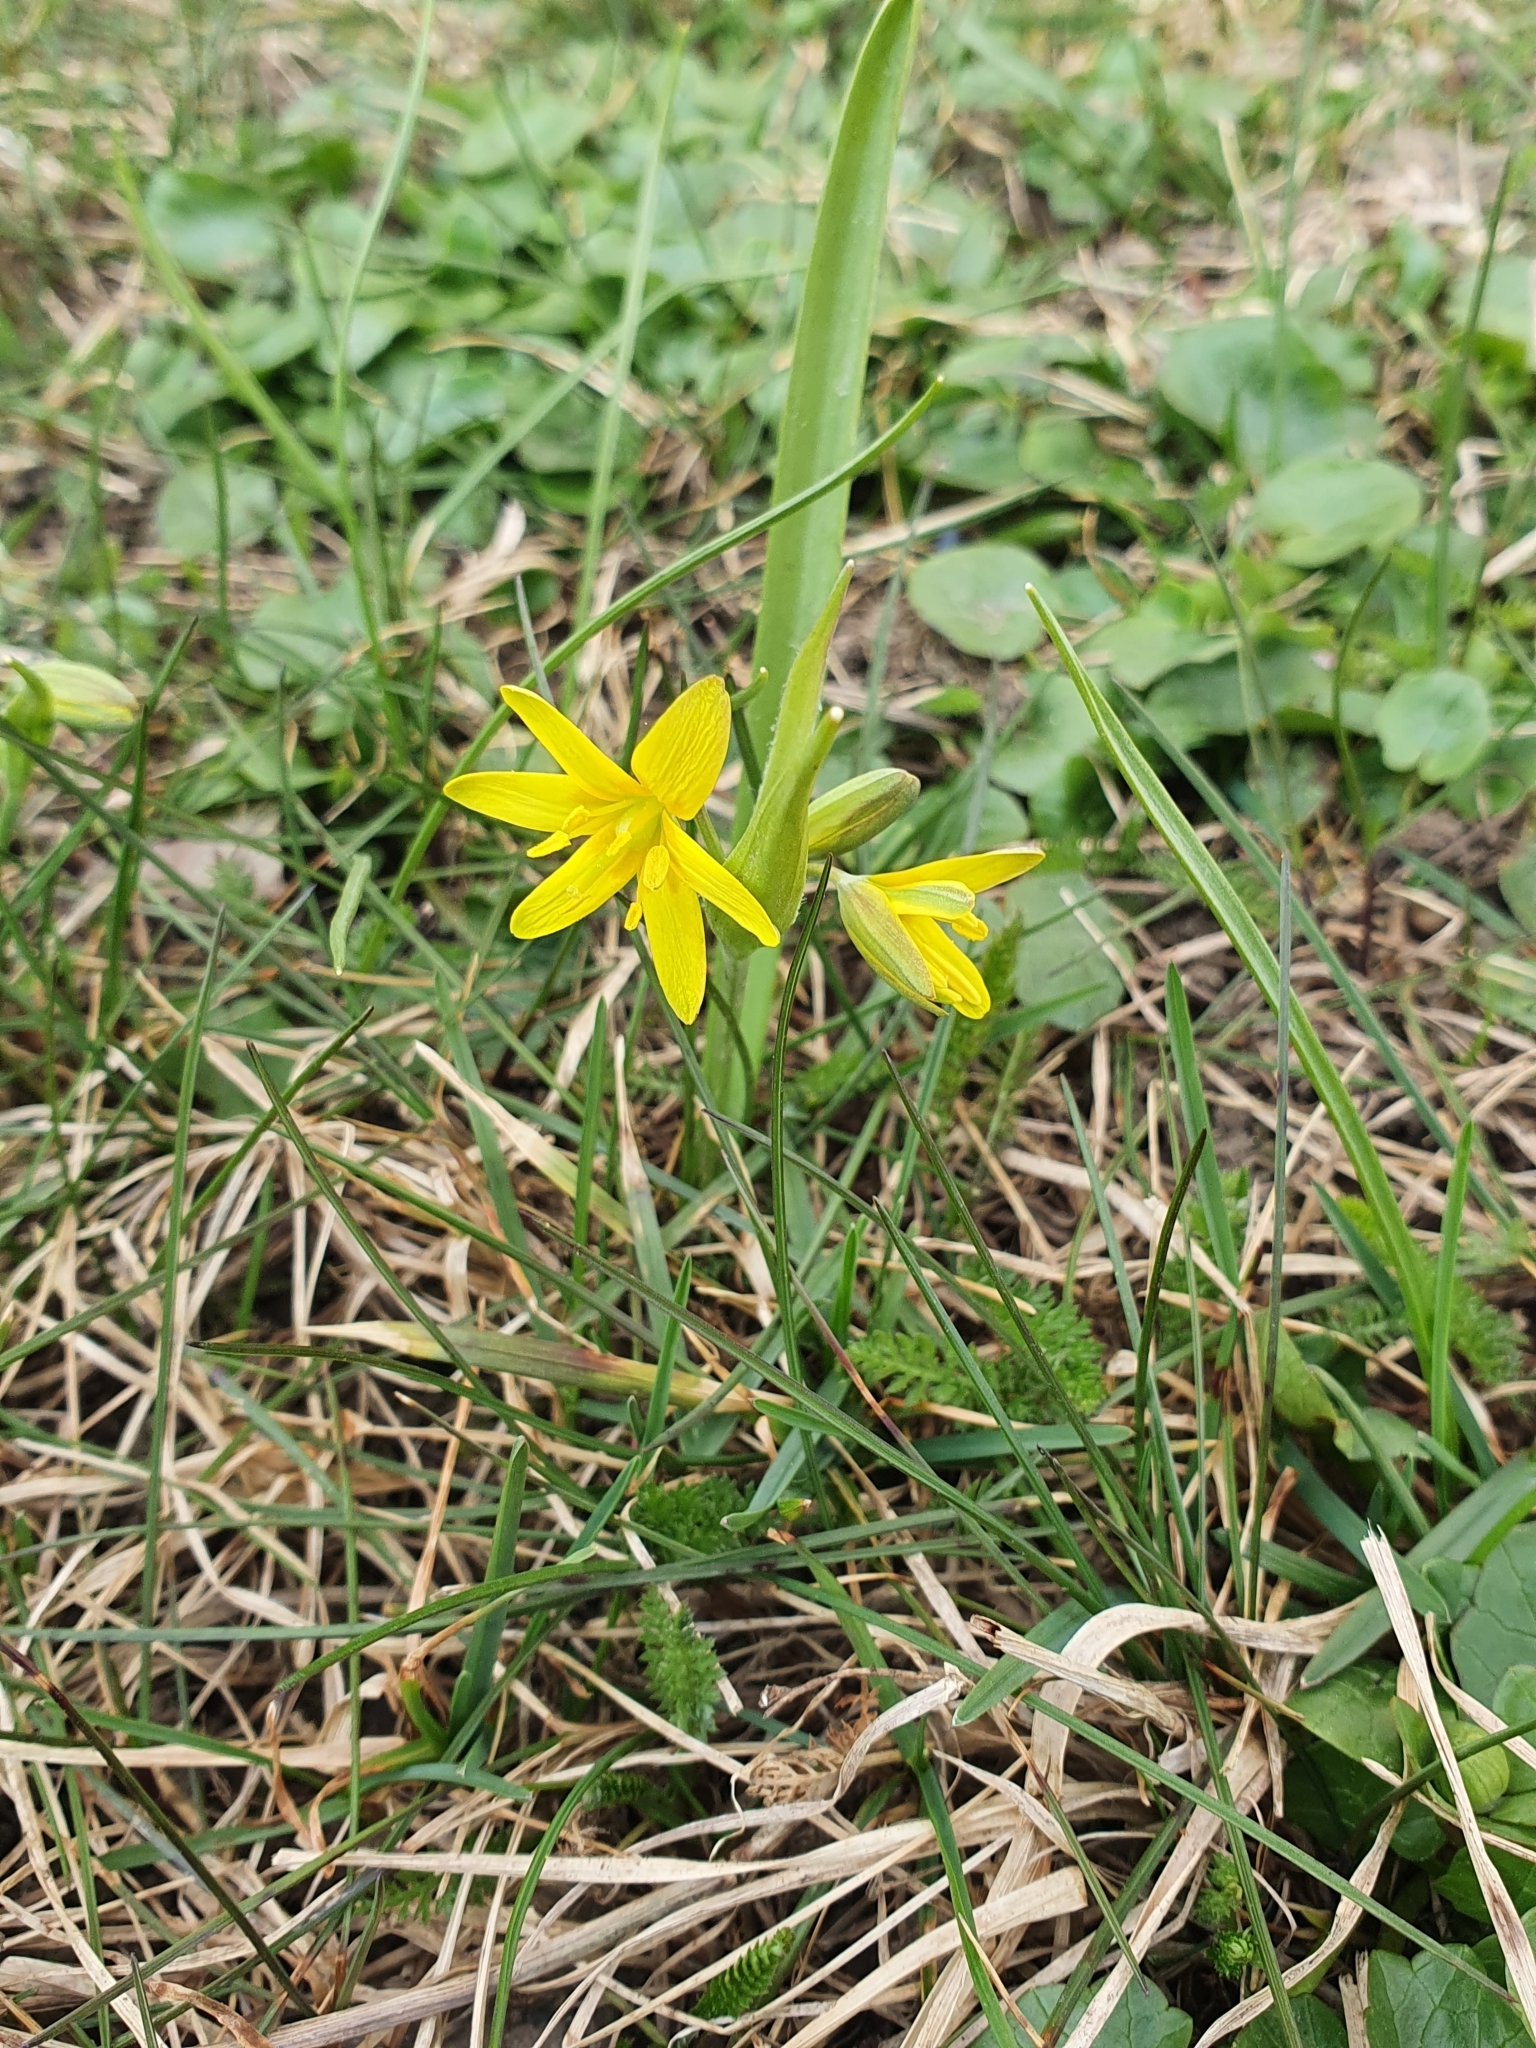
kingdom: Plantae
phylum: Tracheophyta
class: Liliopsida
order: Liliales
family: Liliaceae
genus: Gagea
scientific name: Gagea lutea
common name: Yellow star-of-bethlehem
